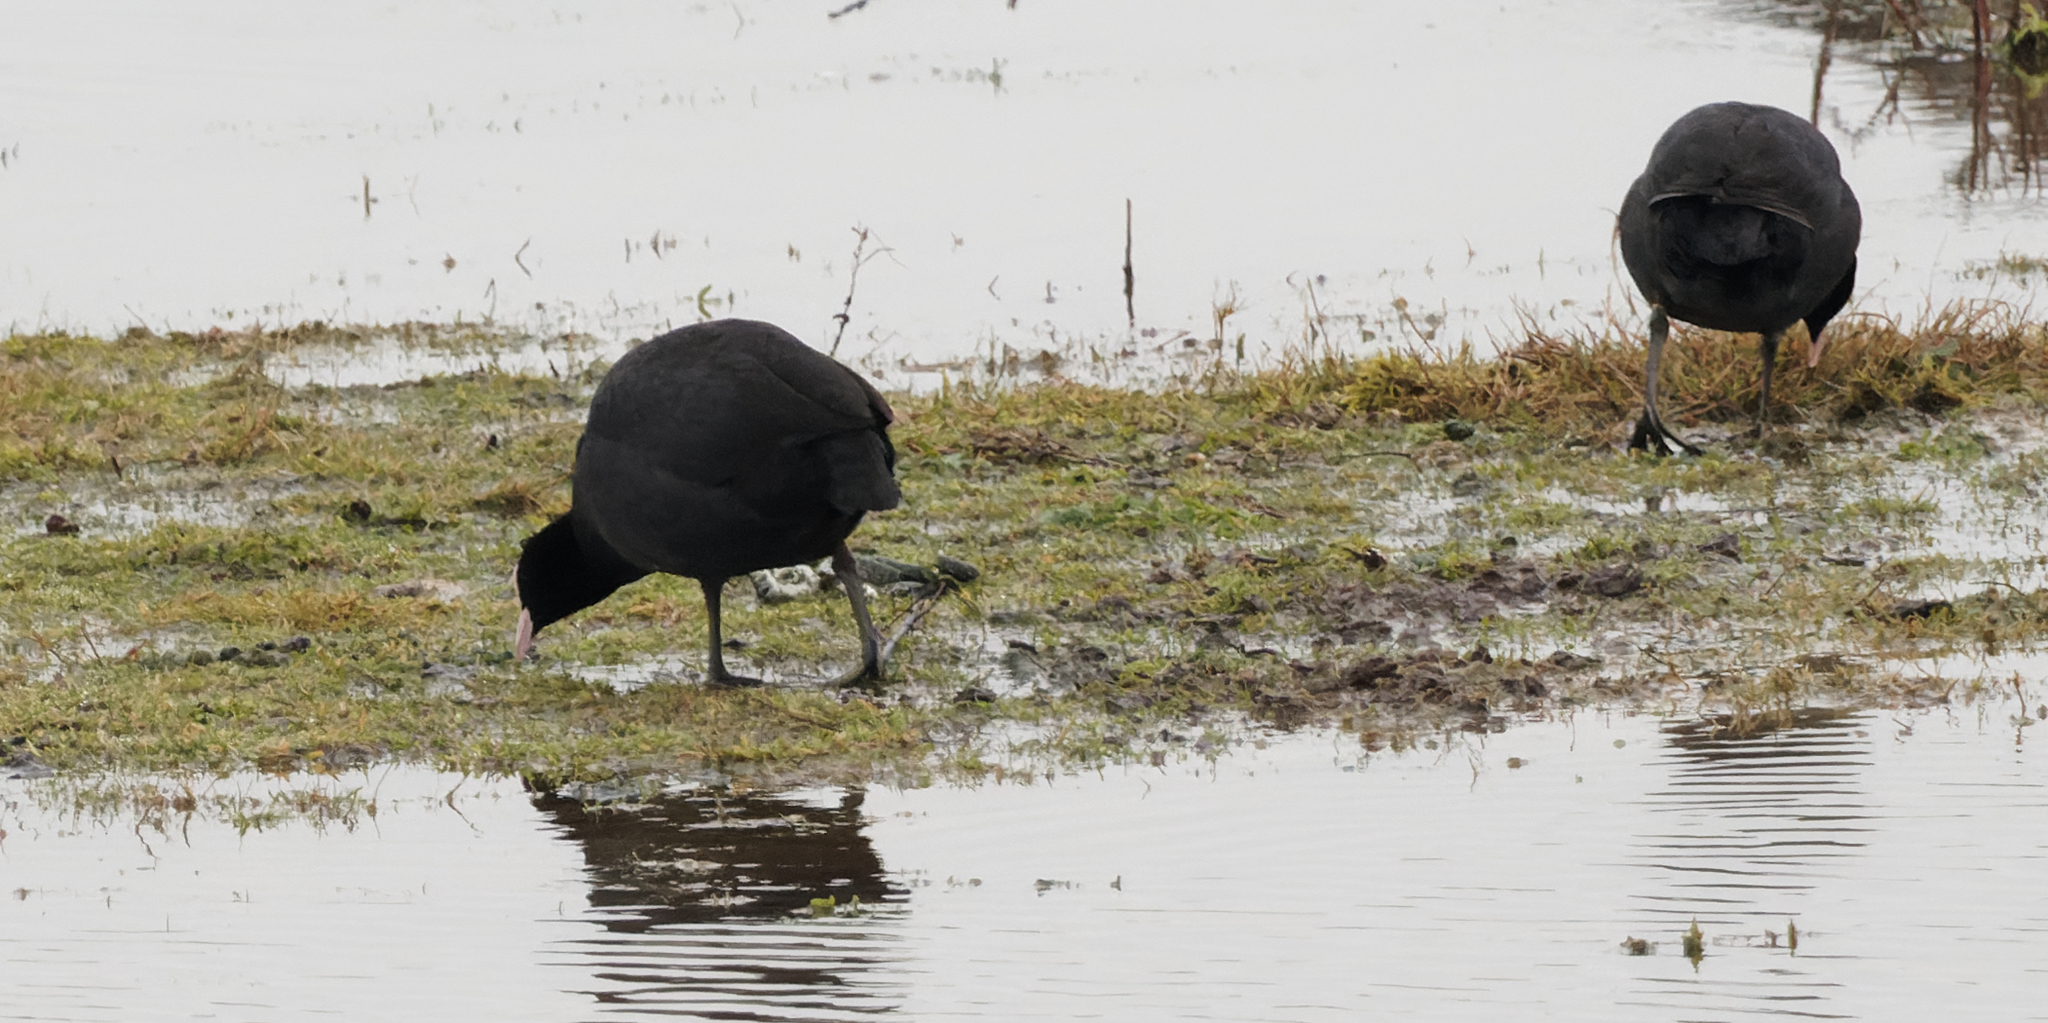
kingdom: Animalia
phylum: Chordata
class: Aves
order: Gruiformes
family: Rallidae
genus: Fulica
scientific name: Fulica atra
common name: Eurasian coot
